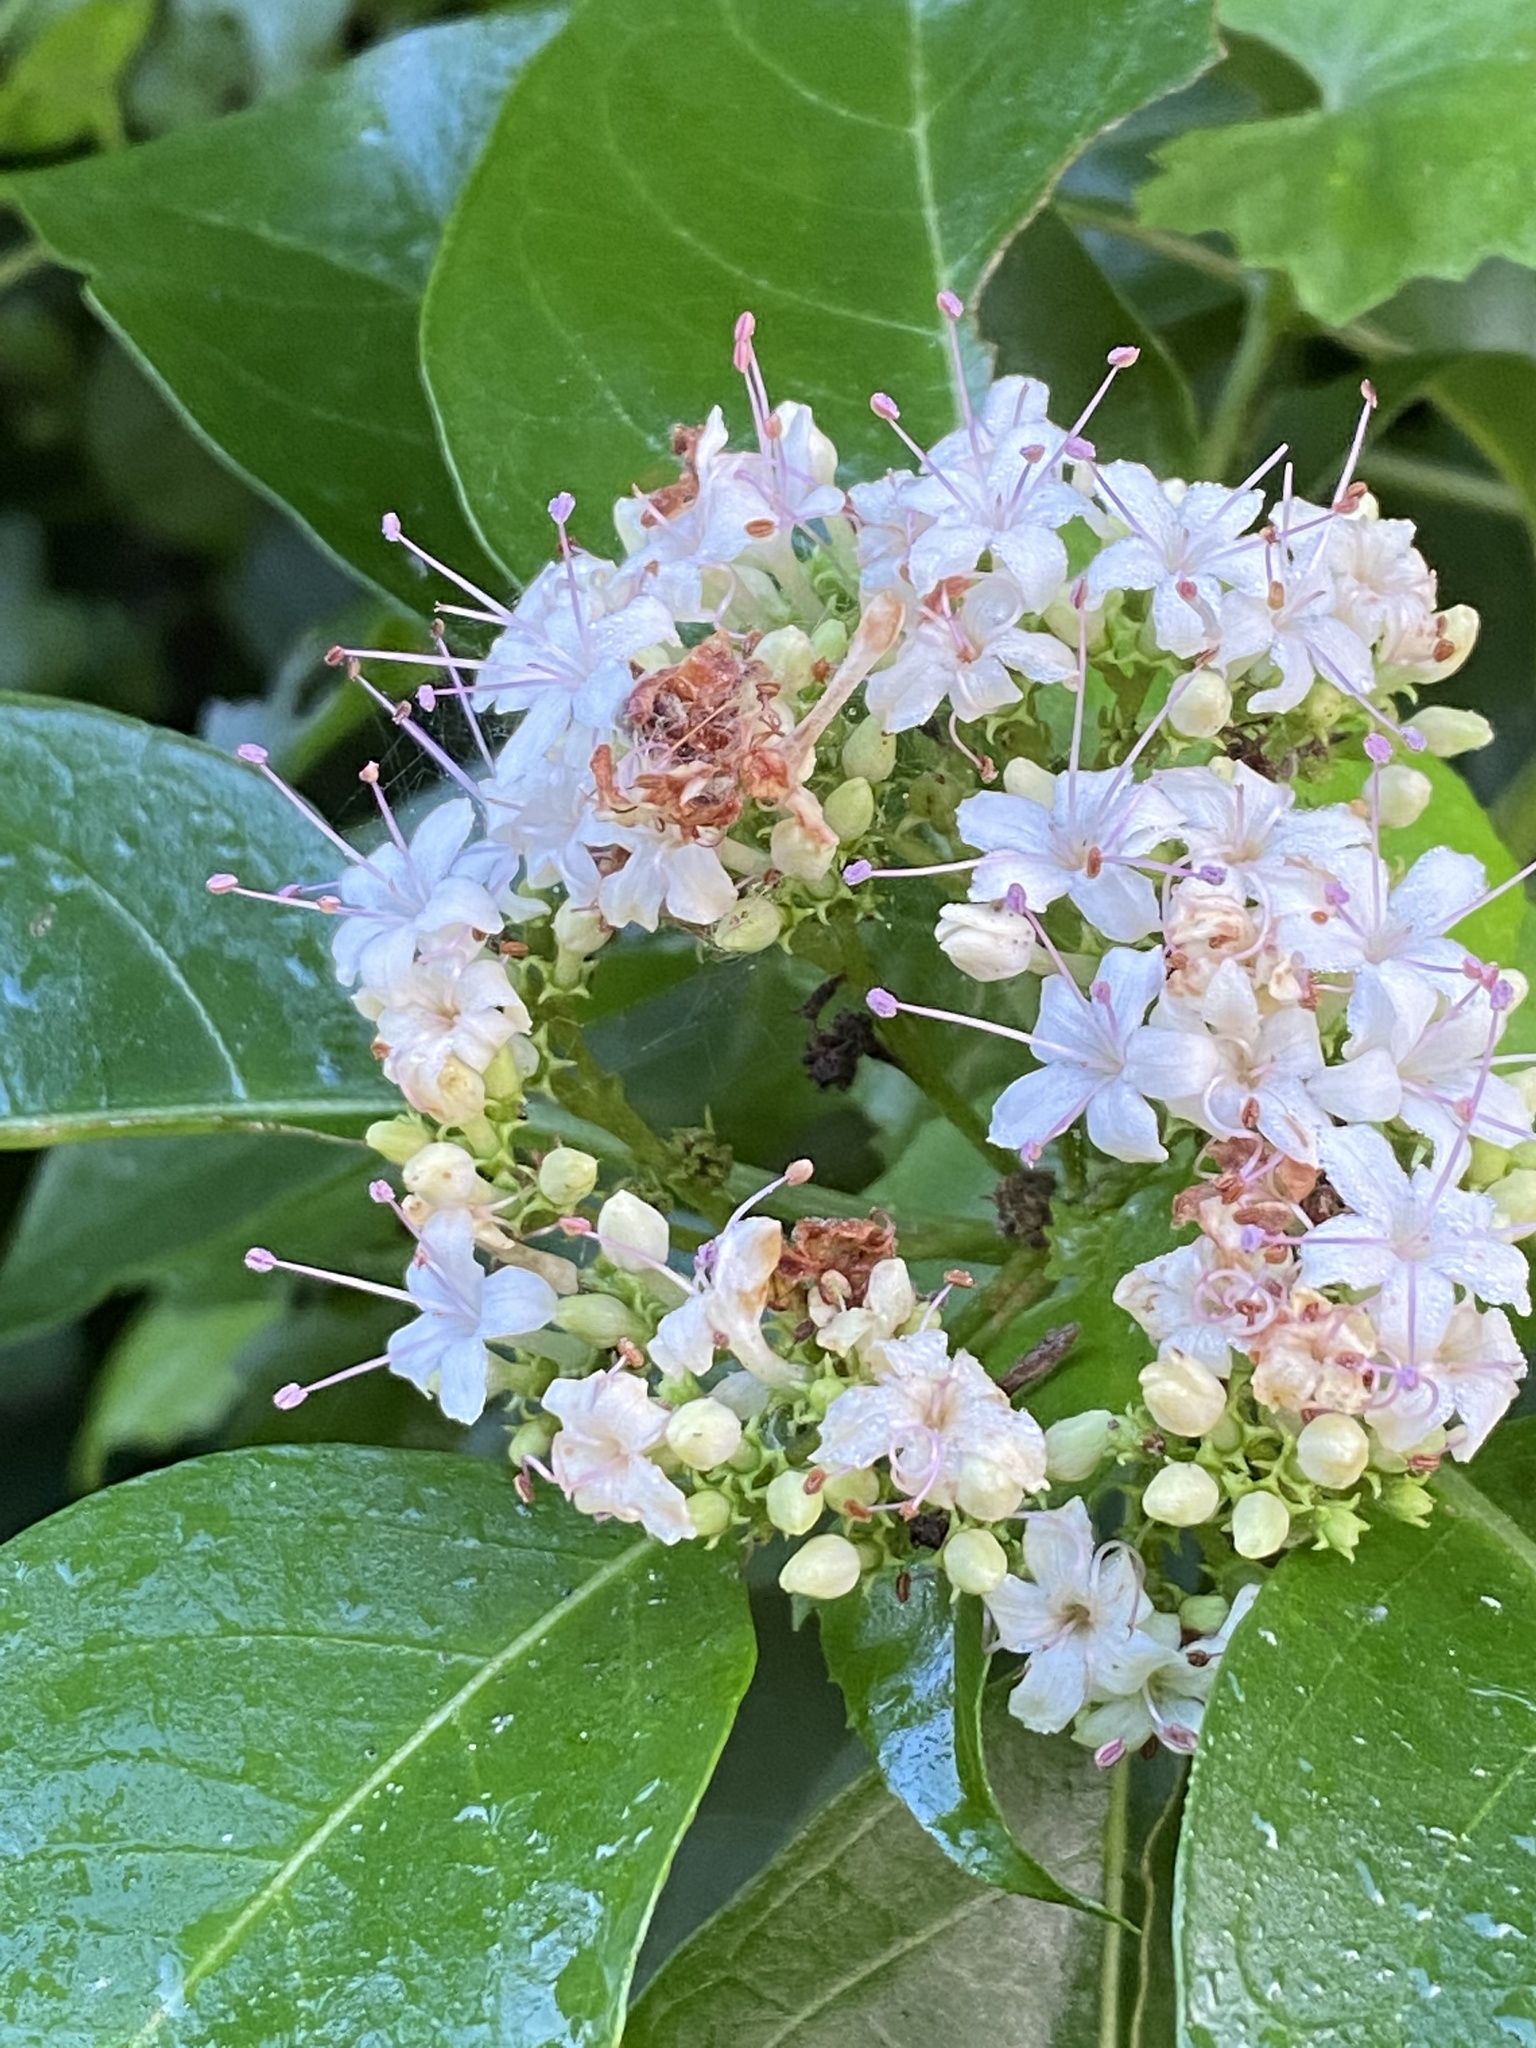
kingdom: Plantae
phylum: Tracheophyta
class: Magnoliopsida
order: Lamiales
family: Lamiaceae
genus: Volkameria
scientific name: Volkameria glabra
